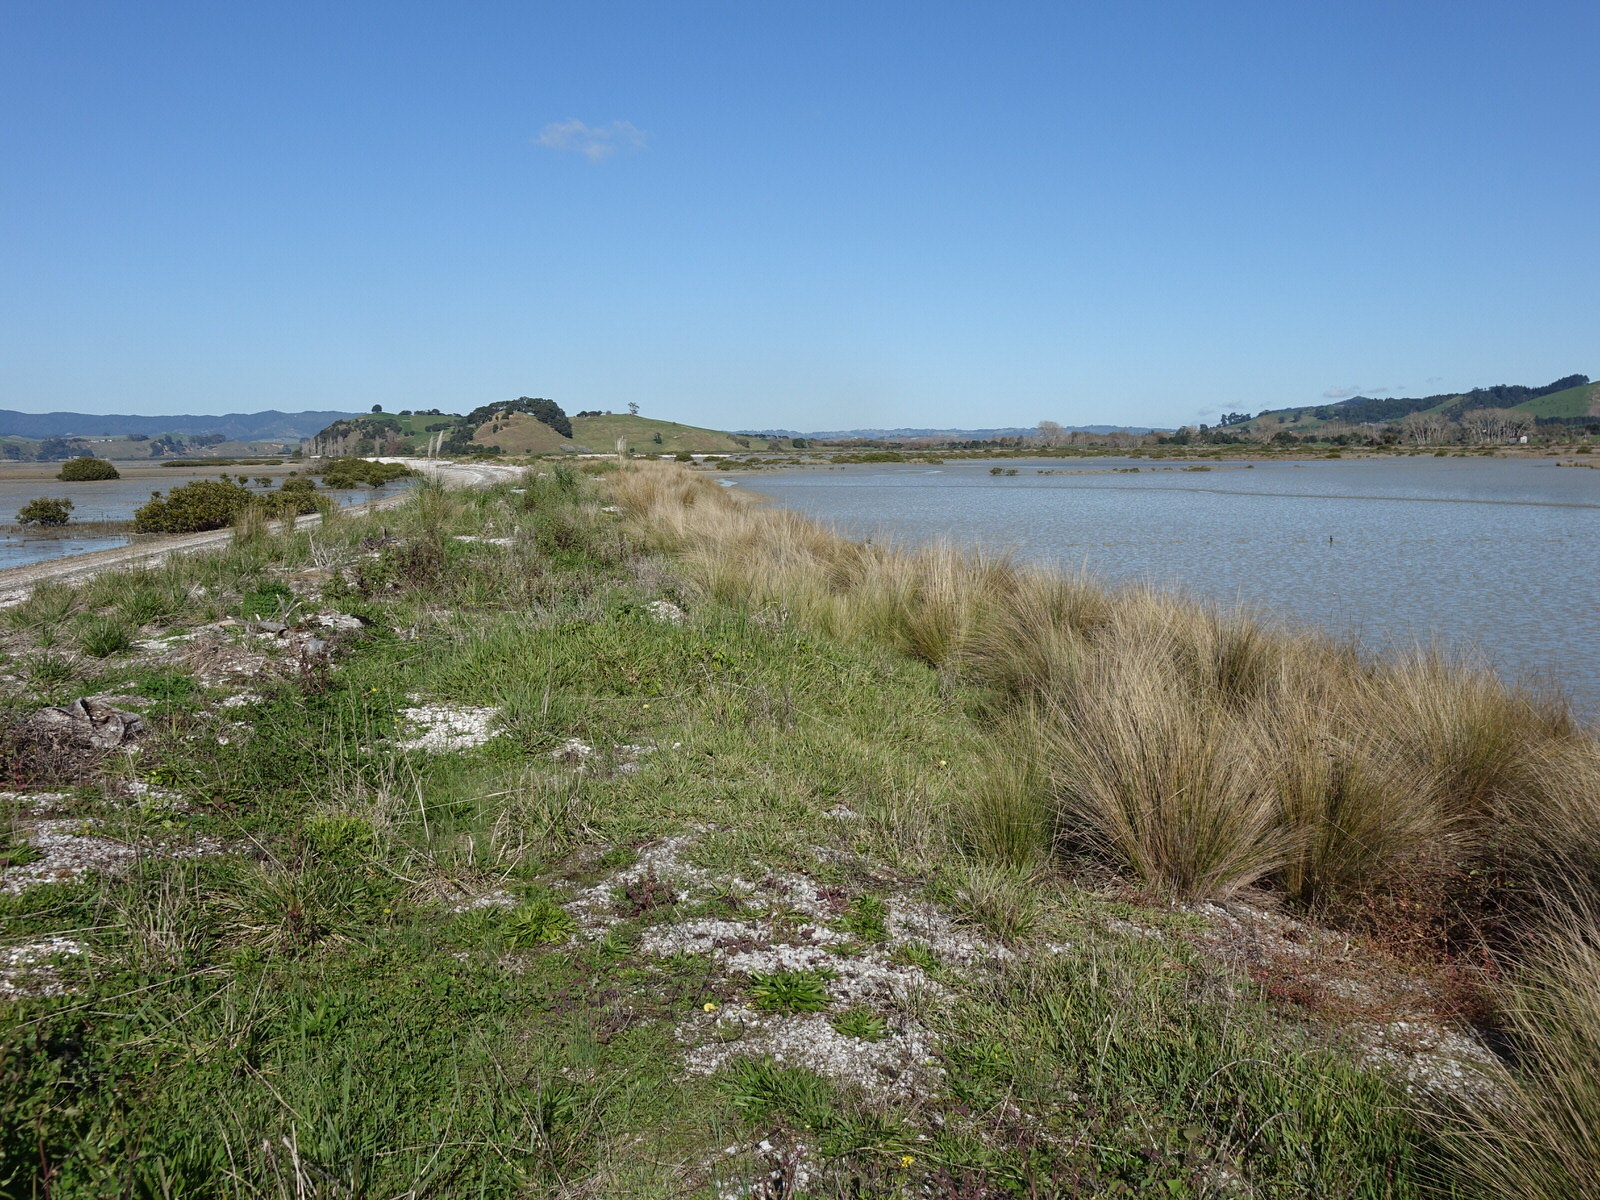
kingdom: Plantae
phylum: Tracheophyta
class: Liliopsida
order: Poales
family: Poaceae
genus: Austrostipa
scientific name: Austrostipa stipoides
